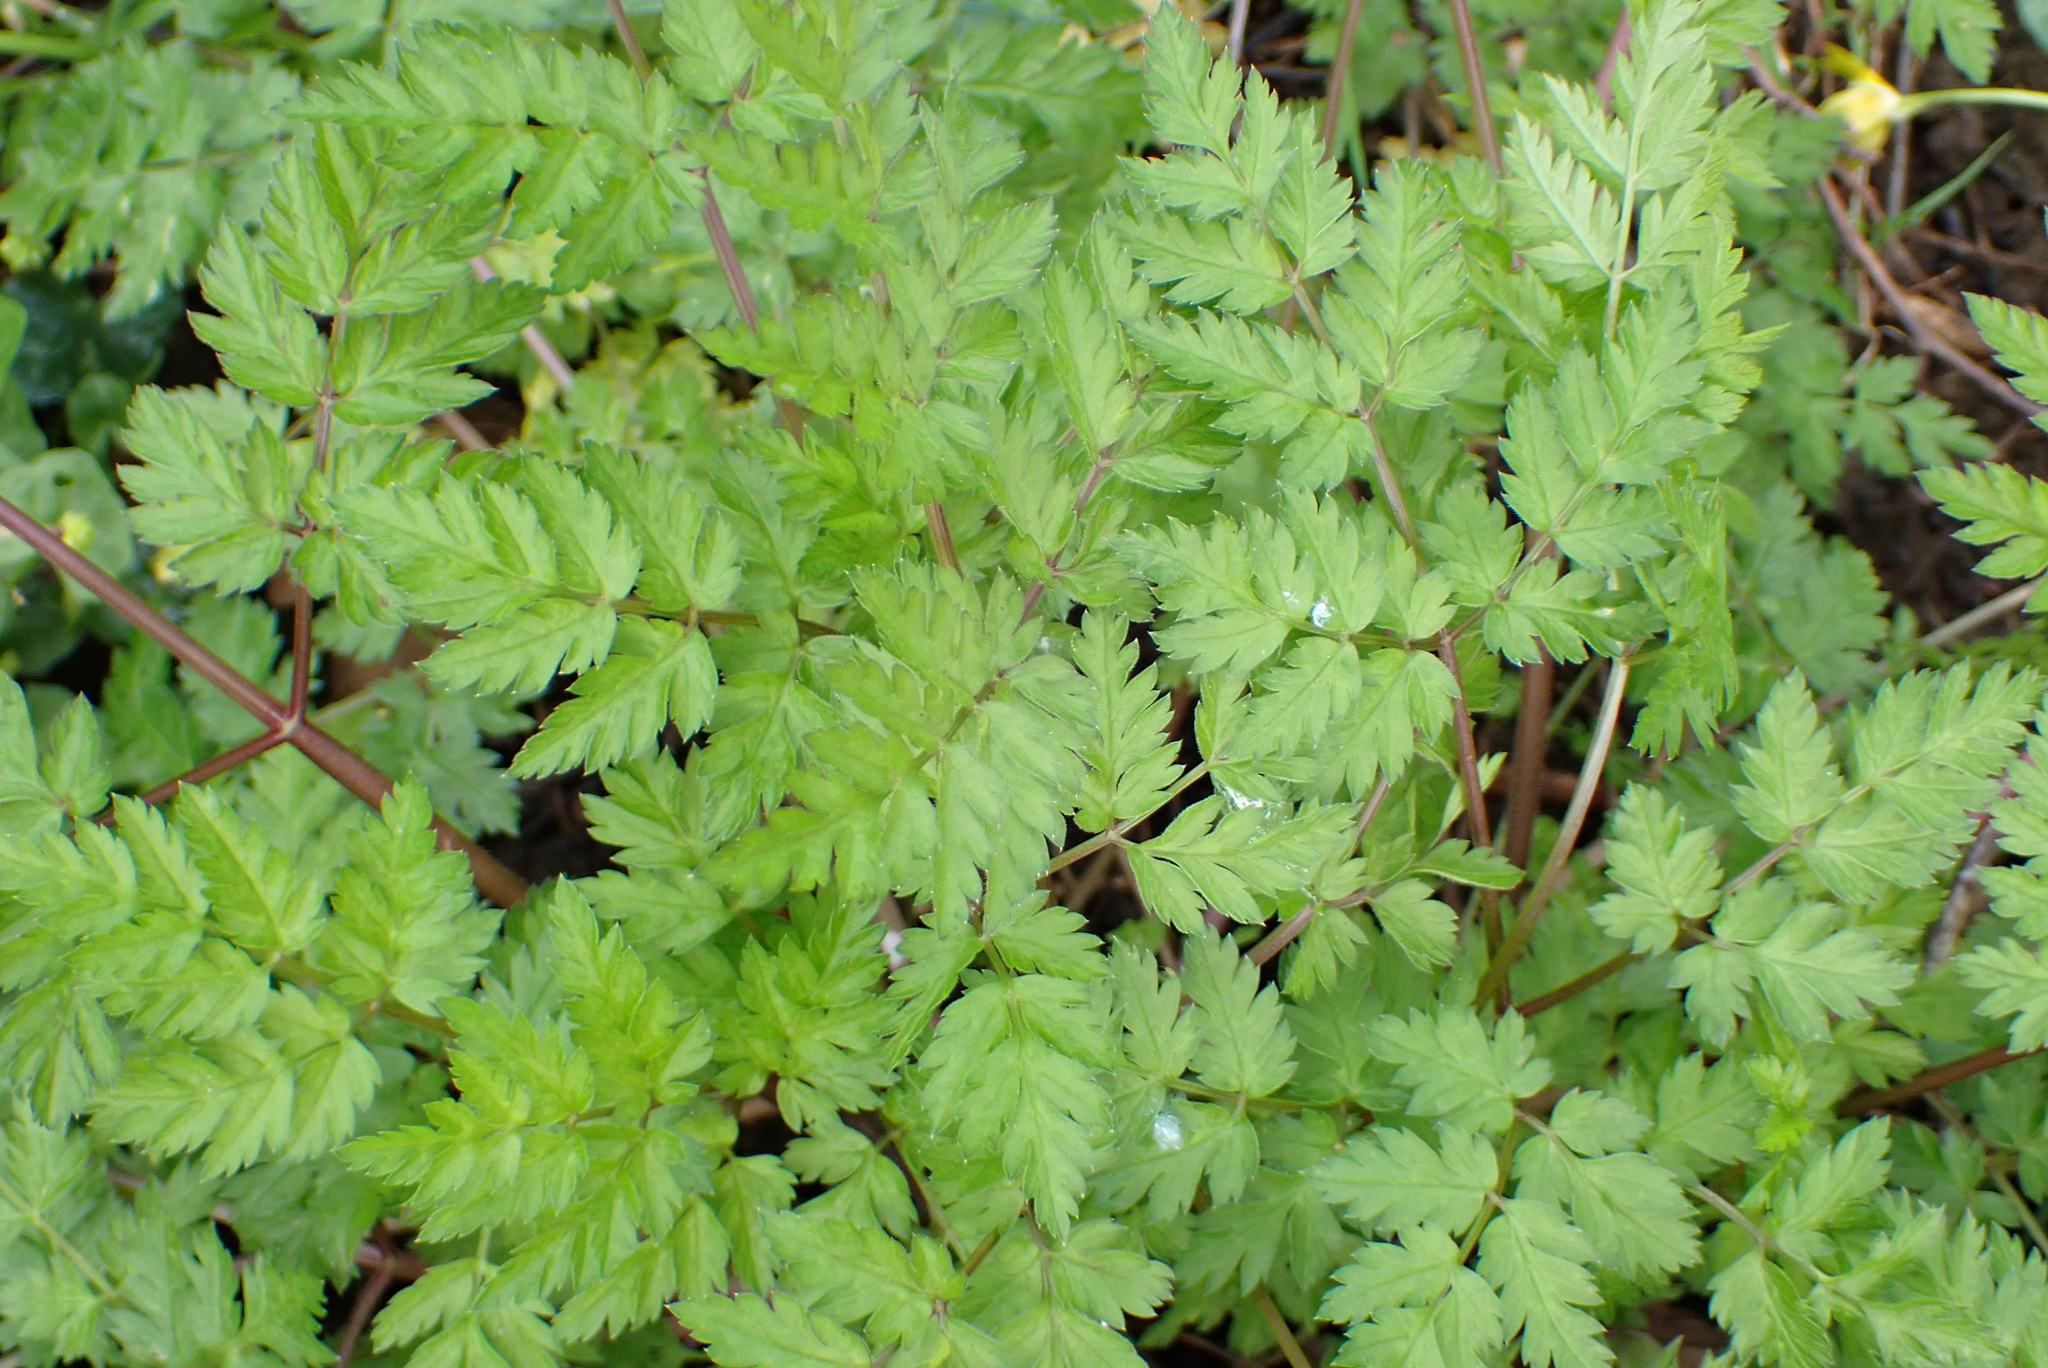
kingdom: Plantae
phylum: Tracheophyta
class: Magnoliopsida
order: Apiales
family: Apiaceae
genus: Anthriscus
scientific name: Anthriscus sylvestris
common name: Cow parsley
